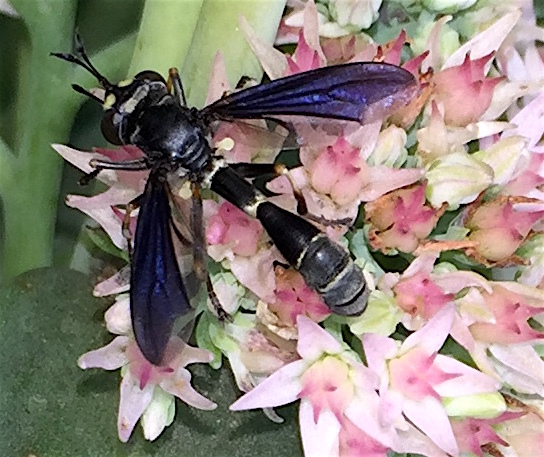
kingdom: Animalia
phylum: Arthropoda
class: Insecta
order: Diptera
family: Conopidae
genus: Physocephala
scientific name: Physocephala tibialis
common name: Common eastern physocephala
